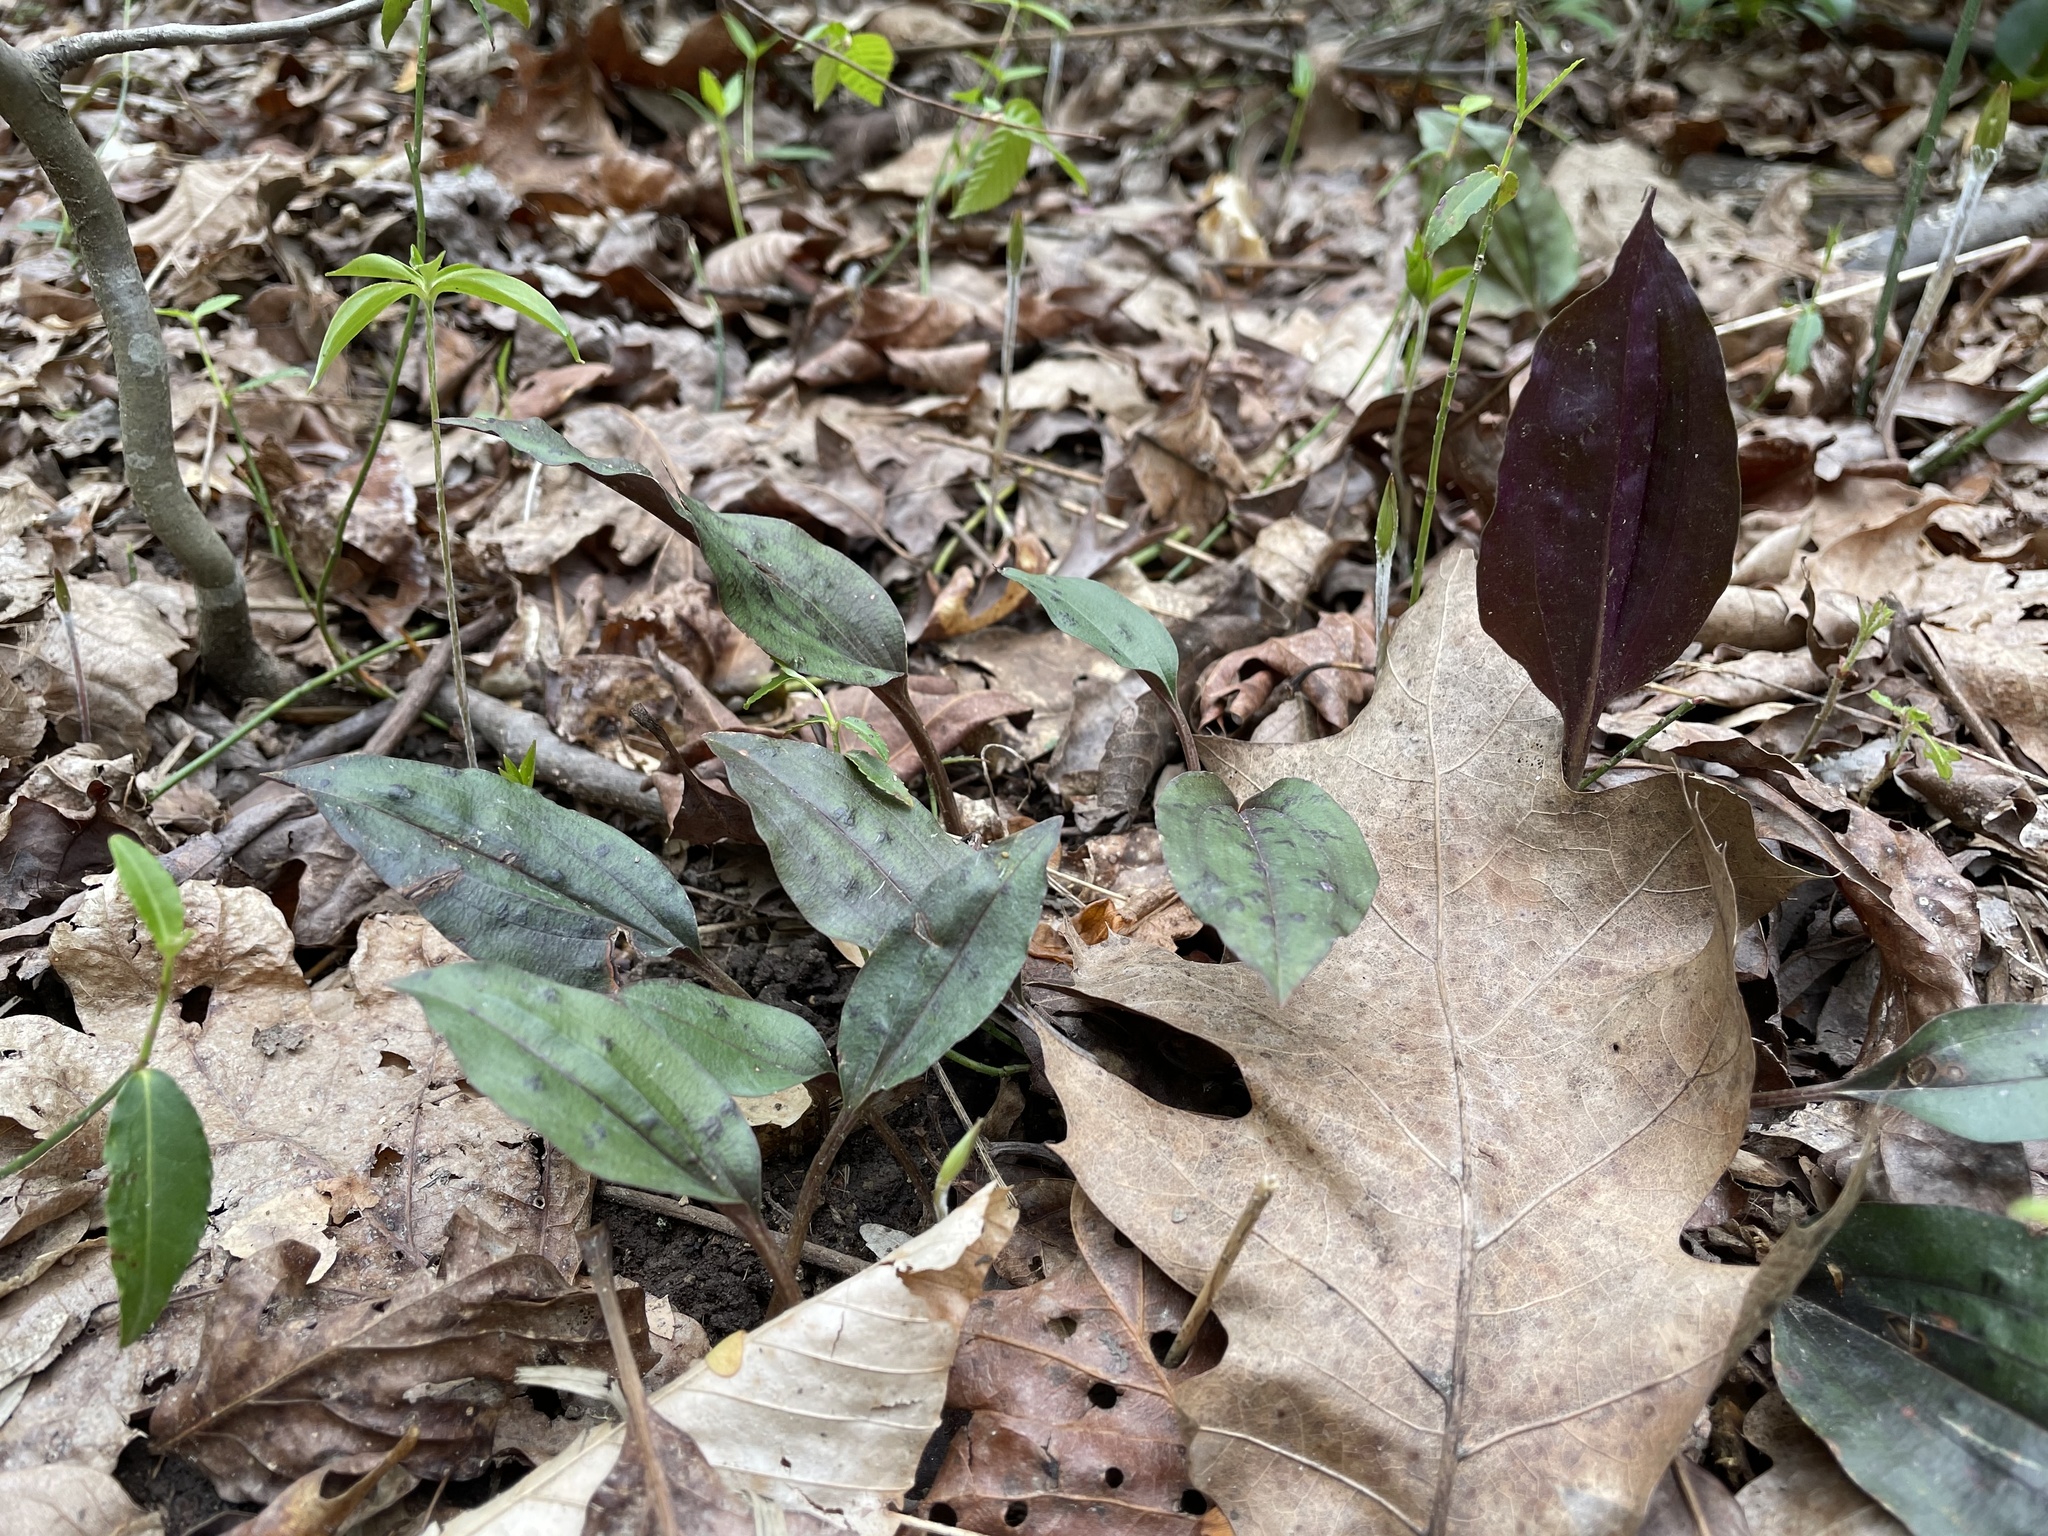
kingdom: Plantae
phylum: Tracheophyta
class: Liliopsida
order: Asparagales
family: Orchidaceae
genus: Tipularia
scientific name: Tipularia discolor
